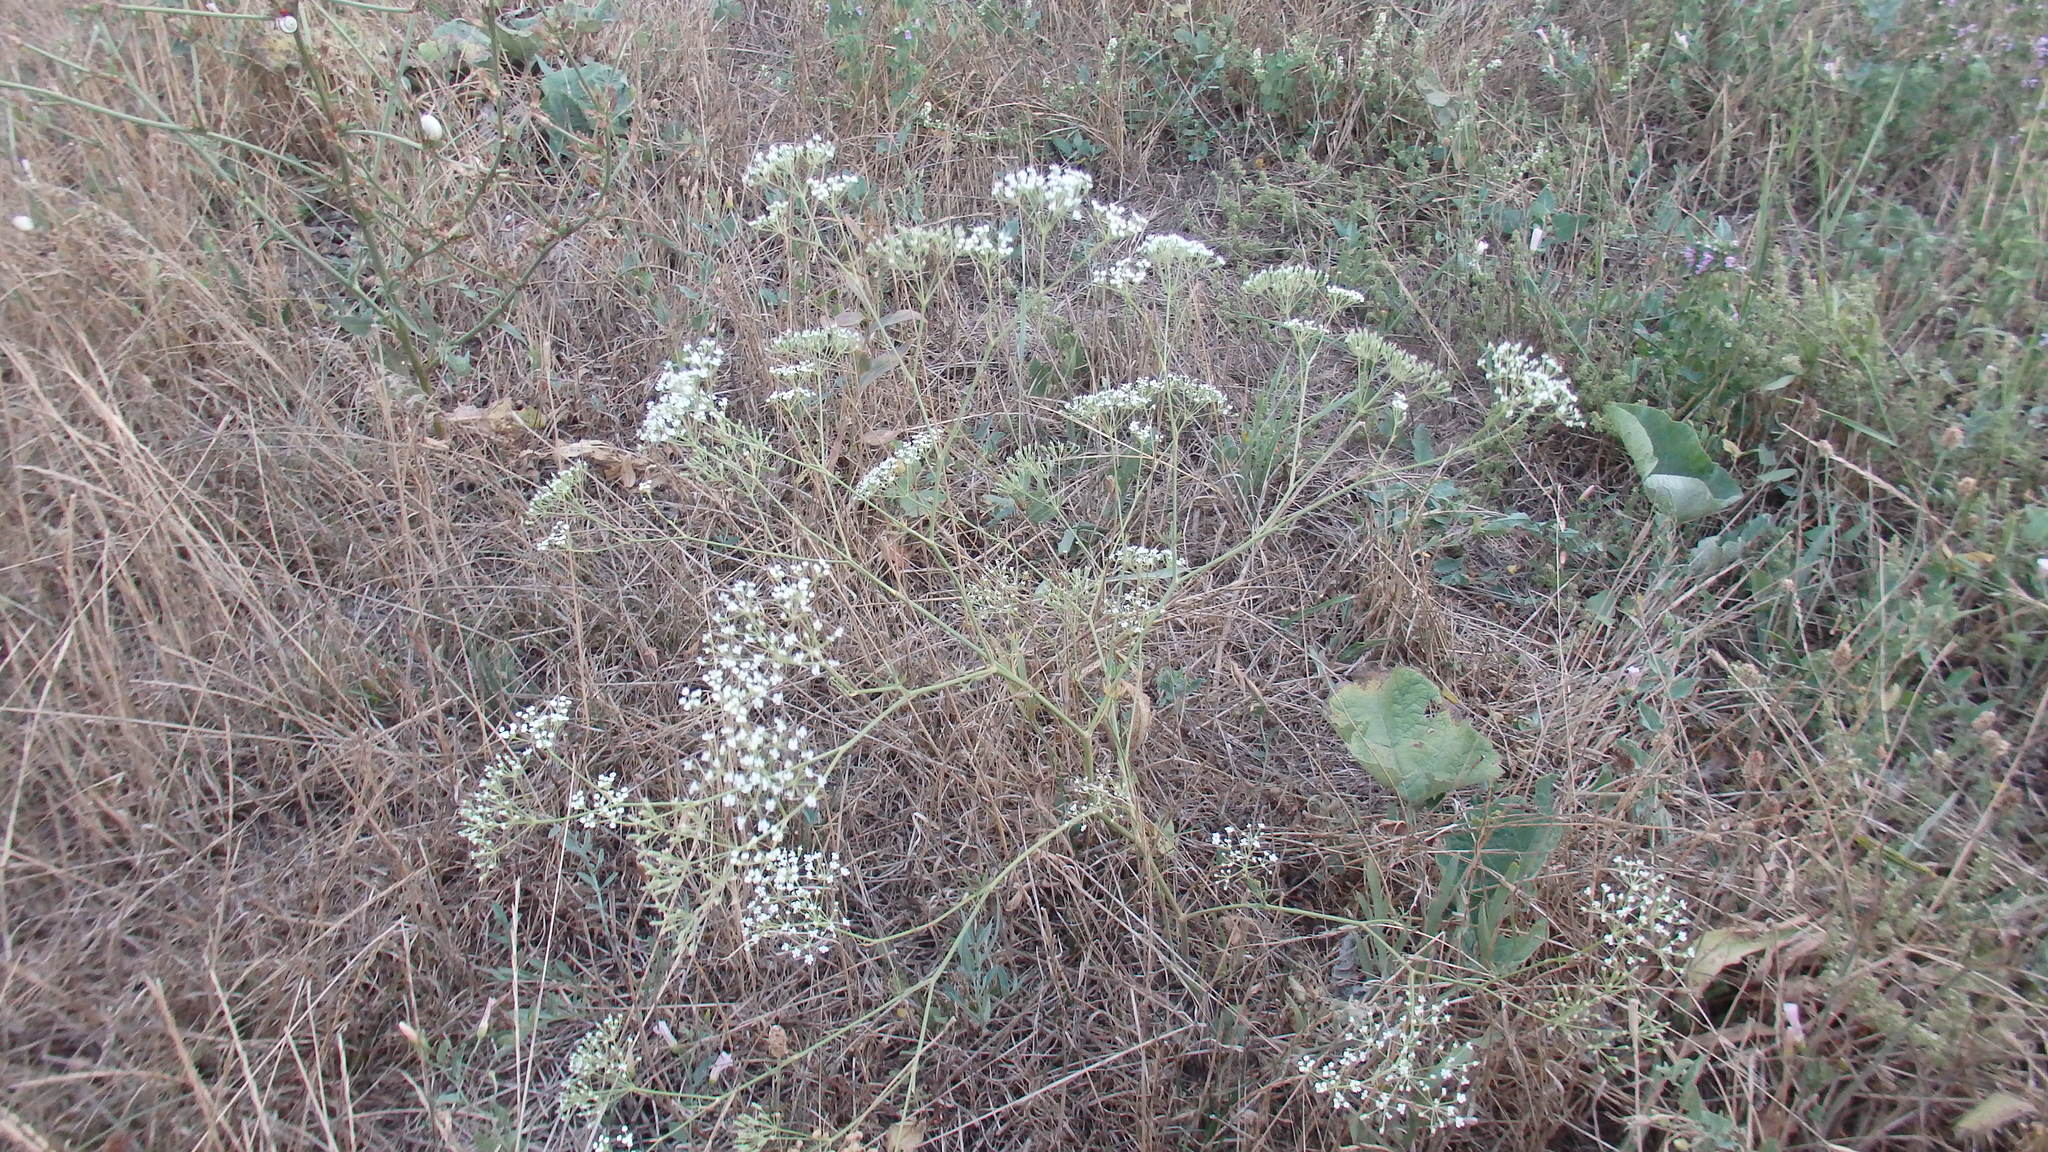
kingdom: Plantae
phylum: Tracheophyta
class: Magnoliopsida
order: Apiales
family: Apiaceae
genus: Falcaria
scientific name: Falcaria vulgaris
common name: Longleaf
